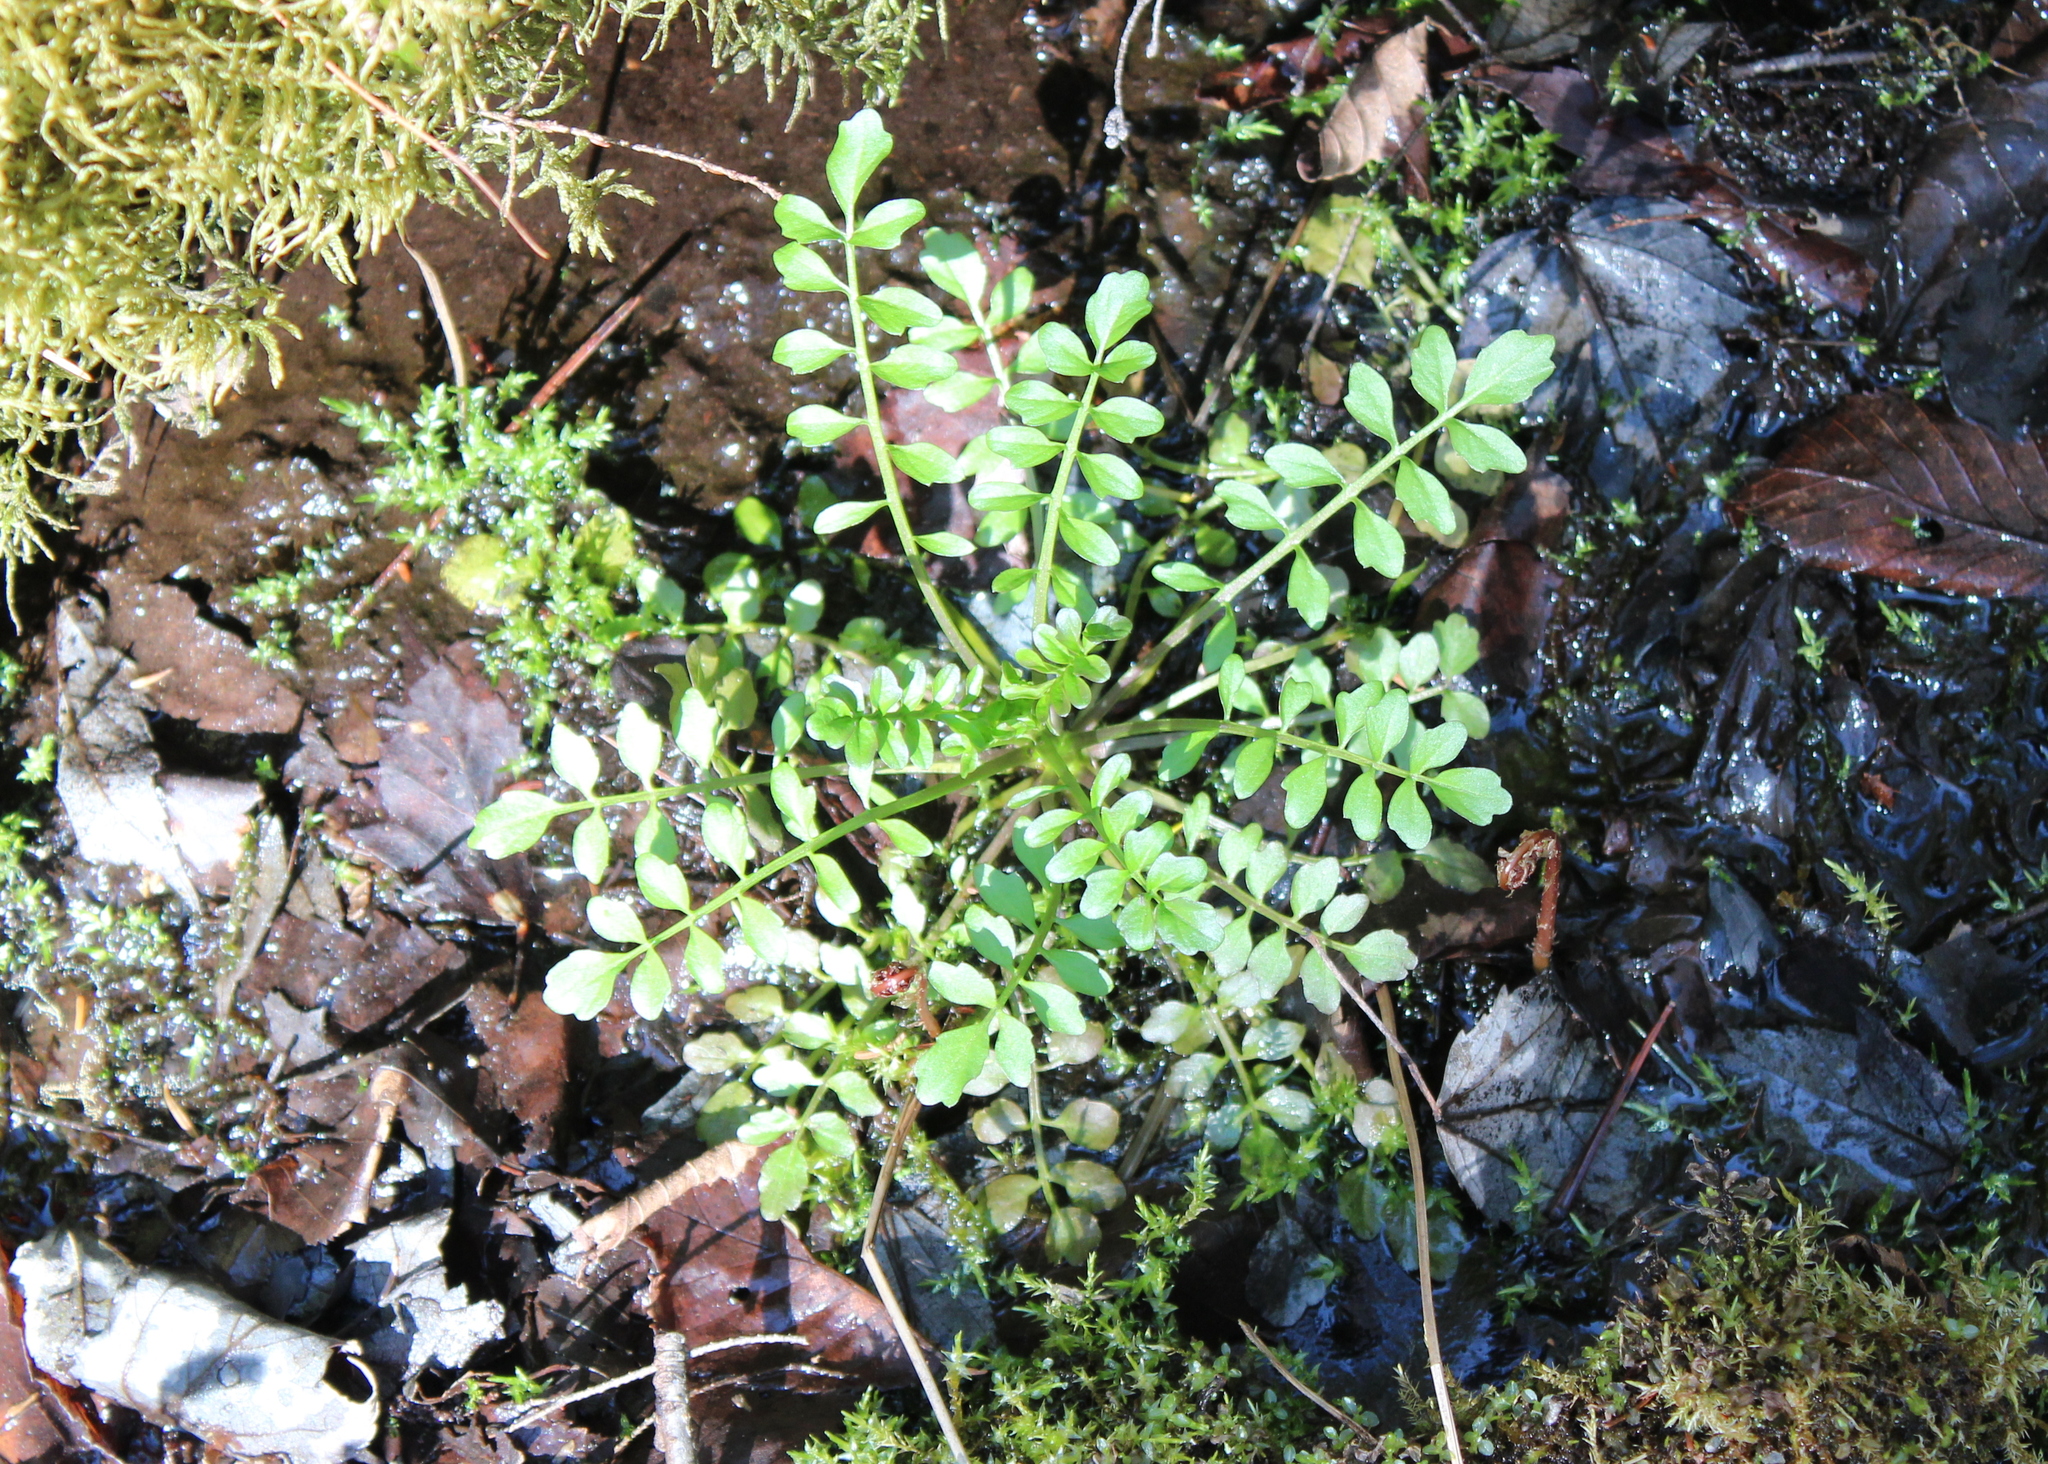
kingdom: Plantae
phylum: Tracheophyta
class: Magnoliopsida
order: Brassicales
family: Brassicaceae
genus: Cardamine
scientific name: Cardamine pensylvanica
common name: Pennsylvania bittercress
